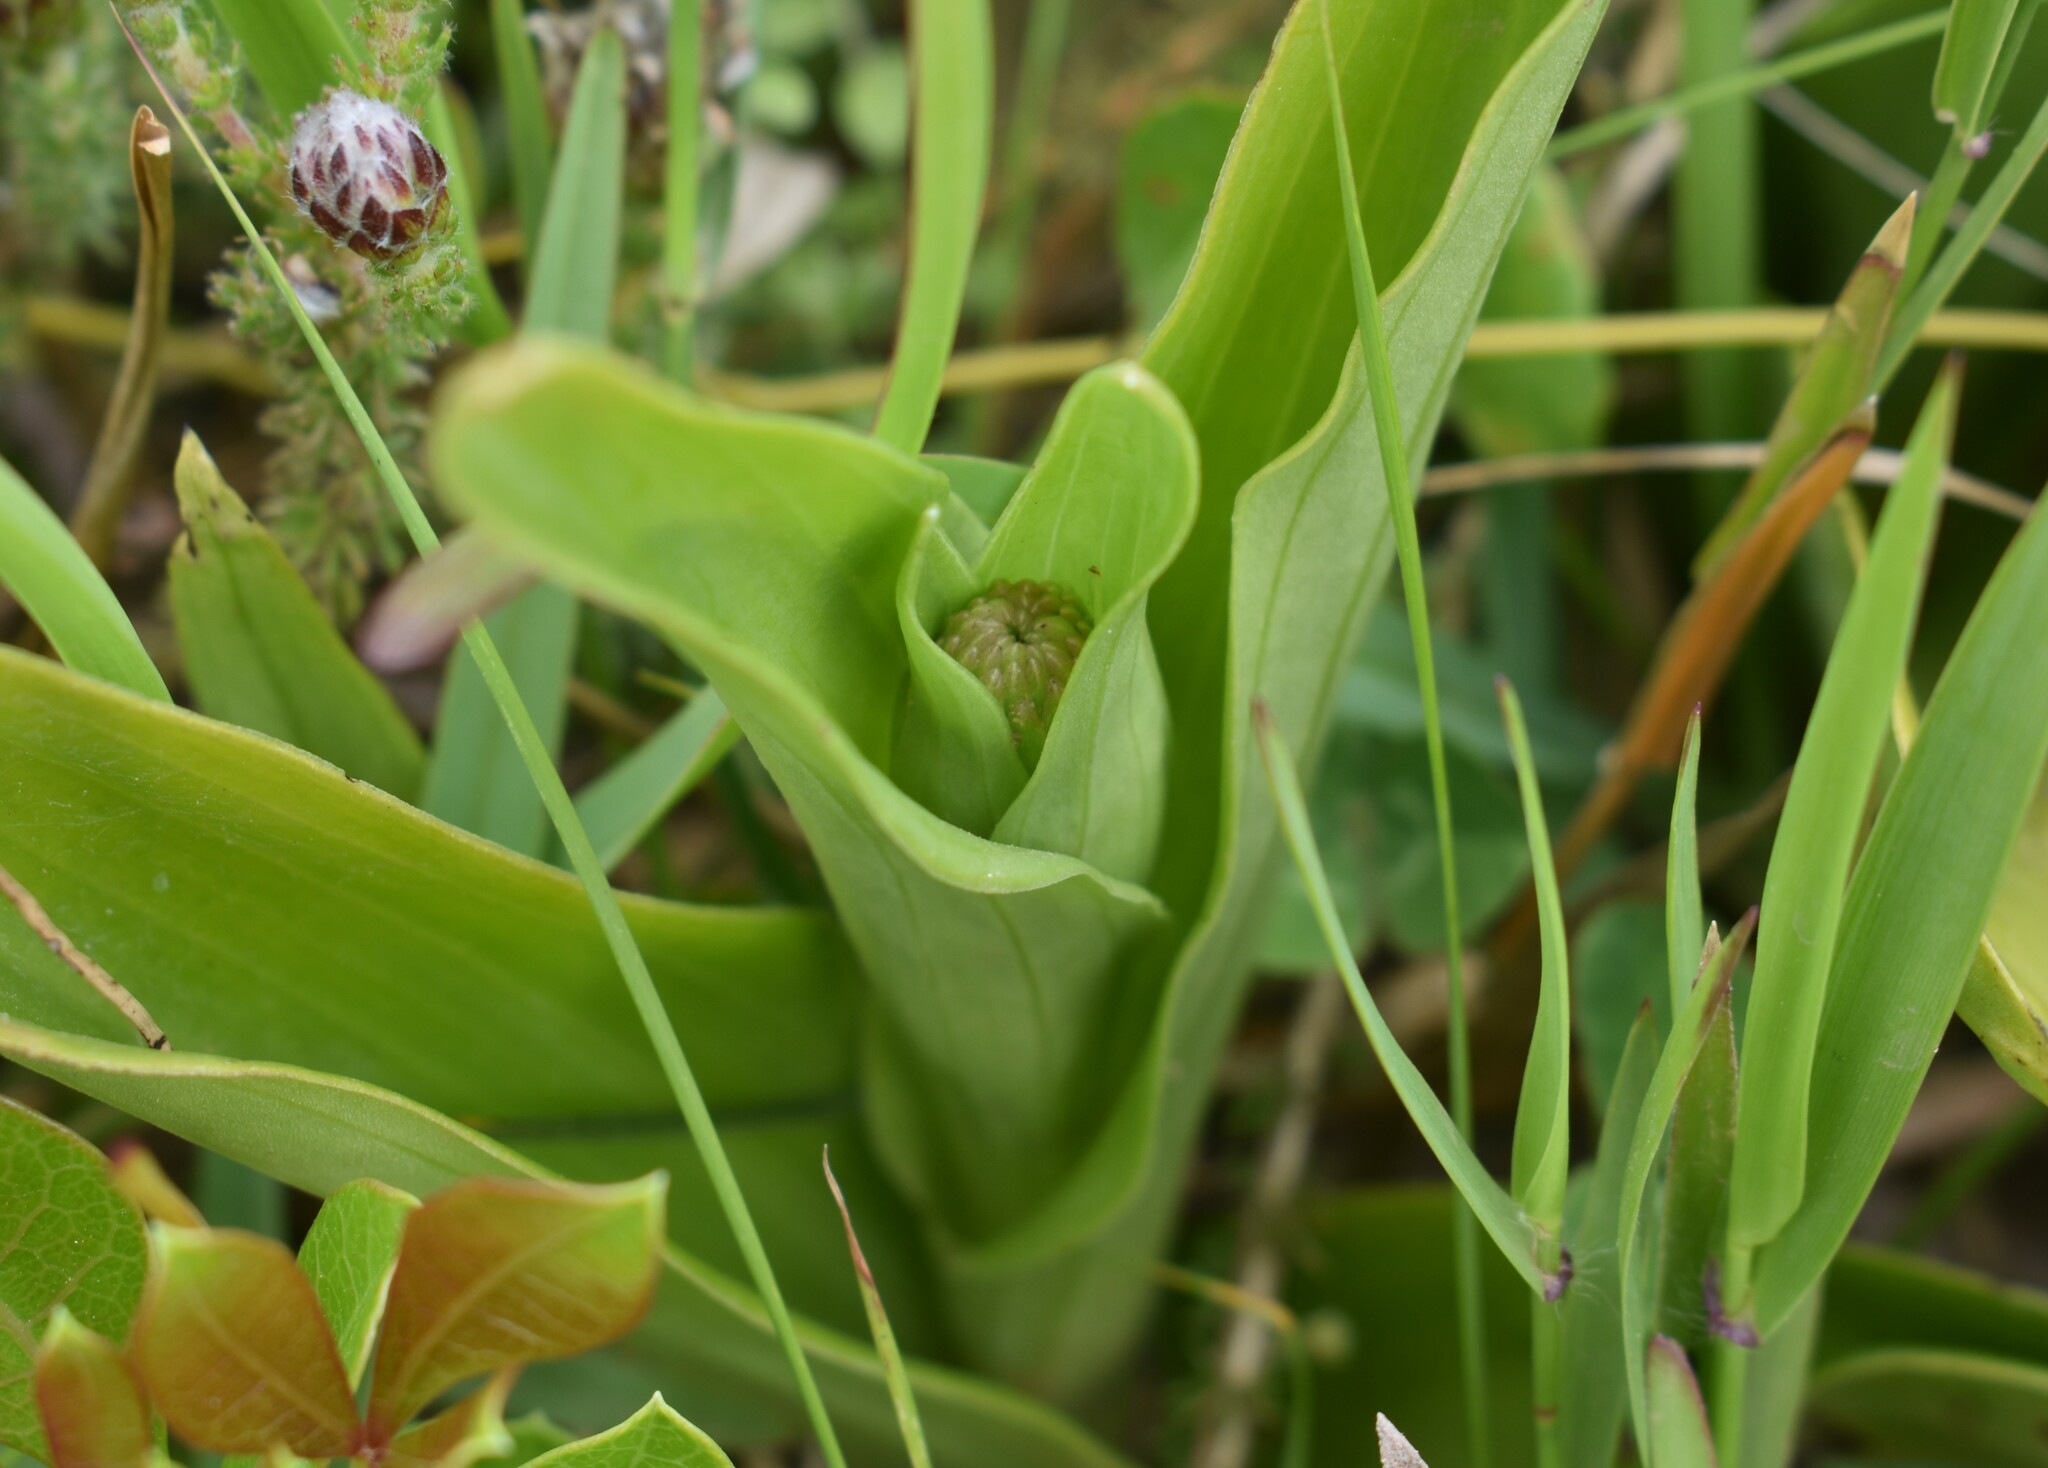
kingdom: Plantae
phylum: Tracheophyta
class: Liliopsida
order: Asparagales
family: Orchidaceae
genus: Satyrium
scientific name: Satyrium hallackii
